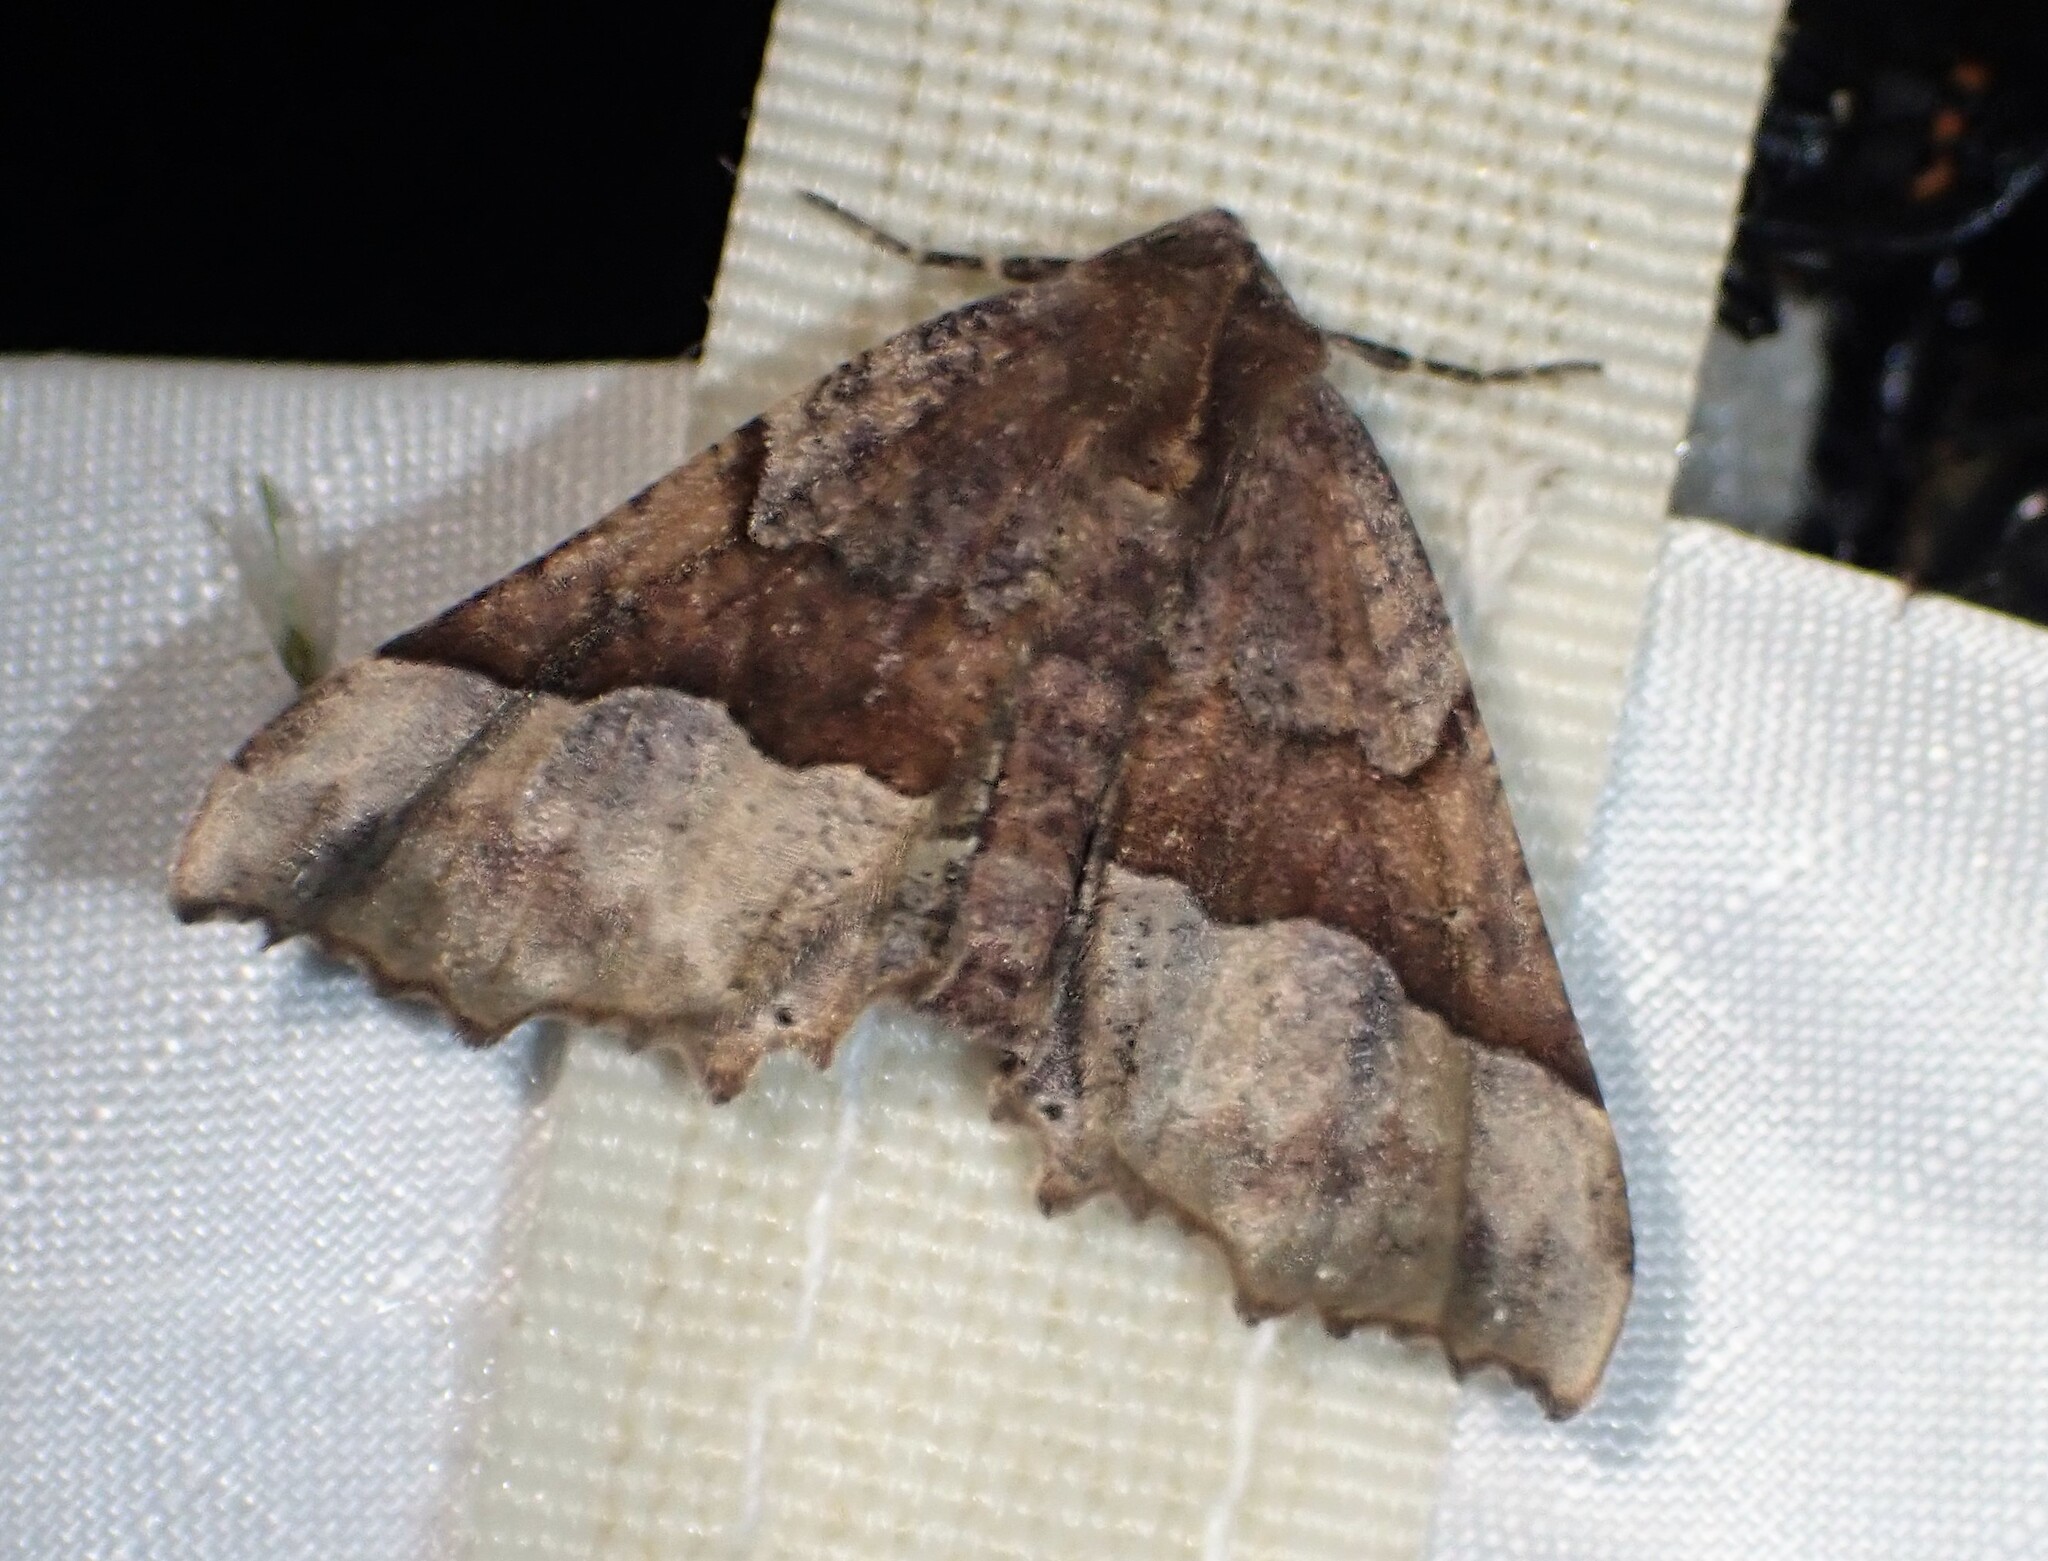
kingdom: Animalia
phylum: Arthropoda
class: Insecta
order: Lepidoptera
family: Geometridae
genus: Pero
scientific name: Pero morrisonaria
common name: Morrison's pero
